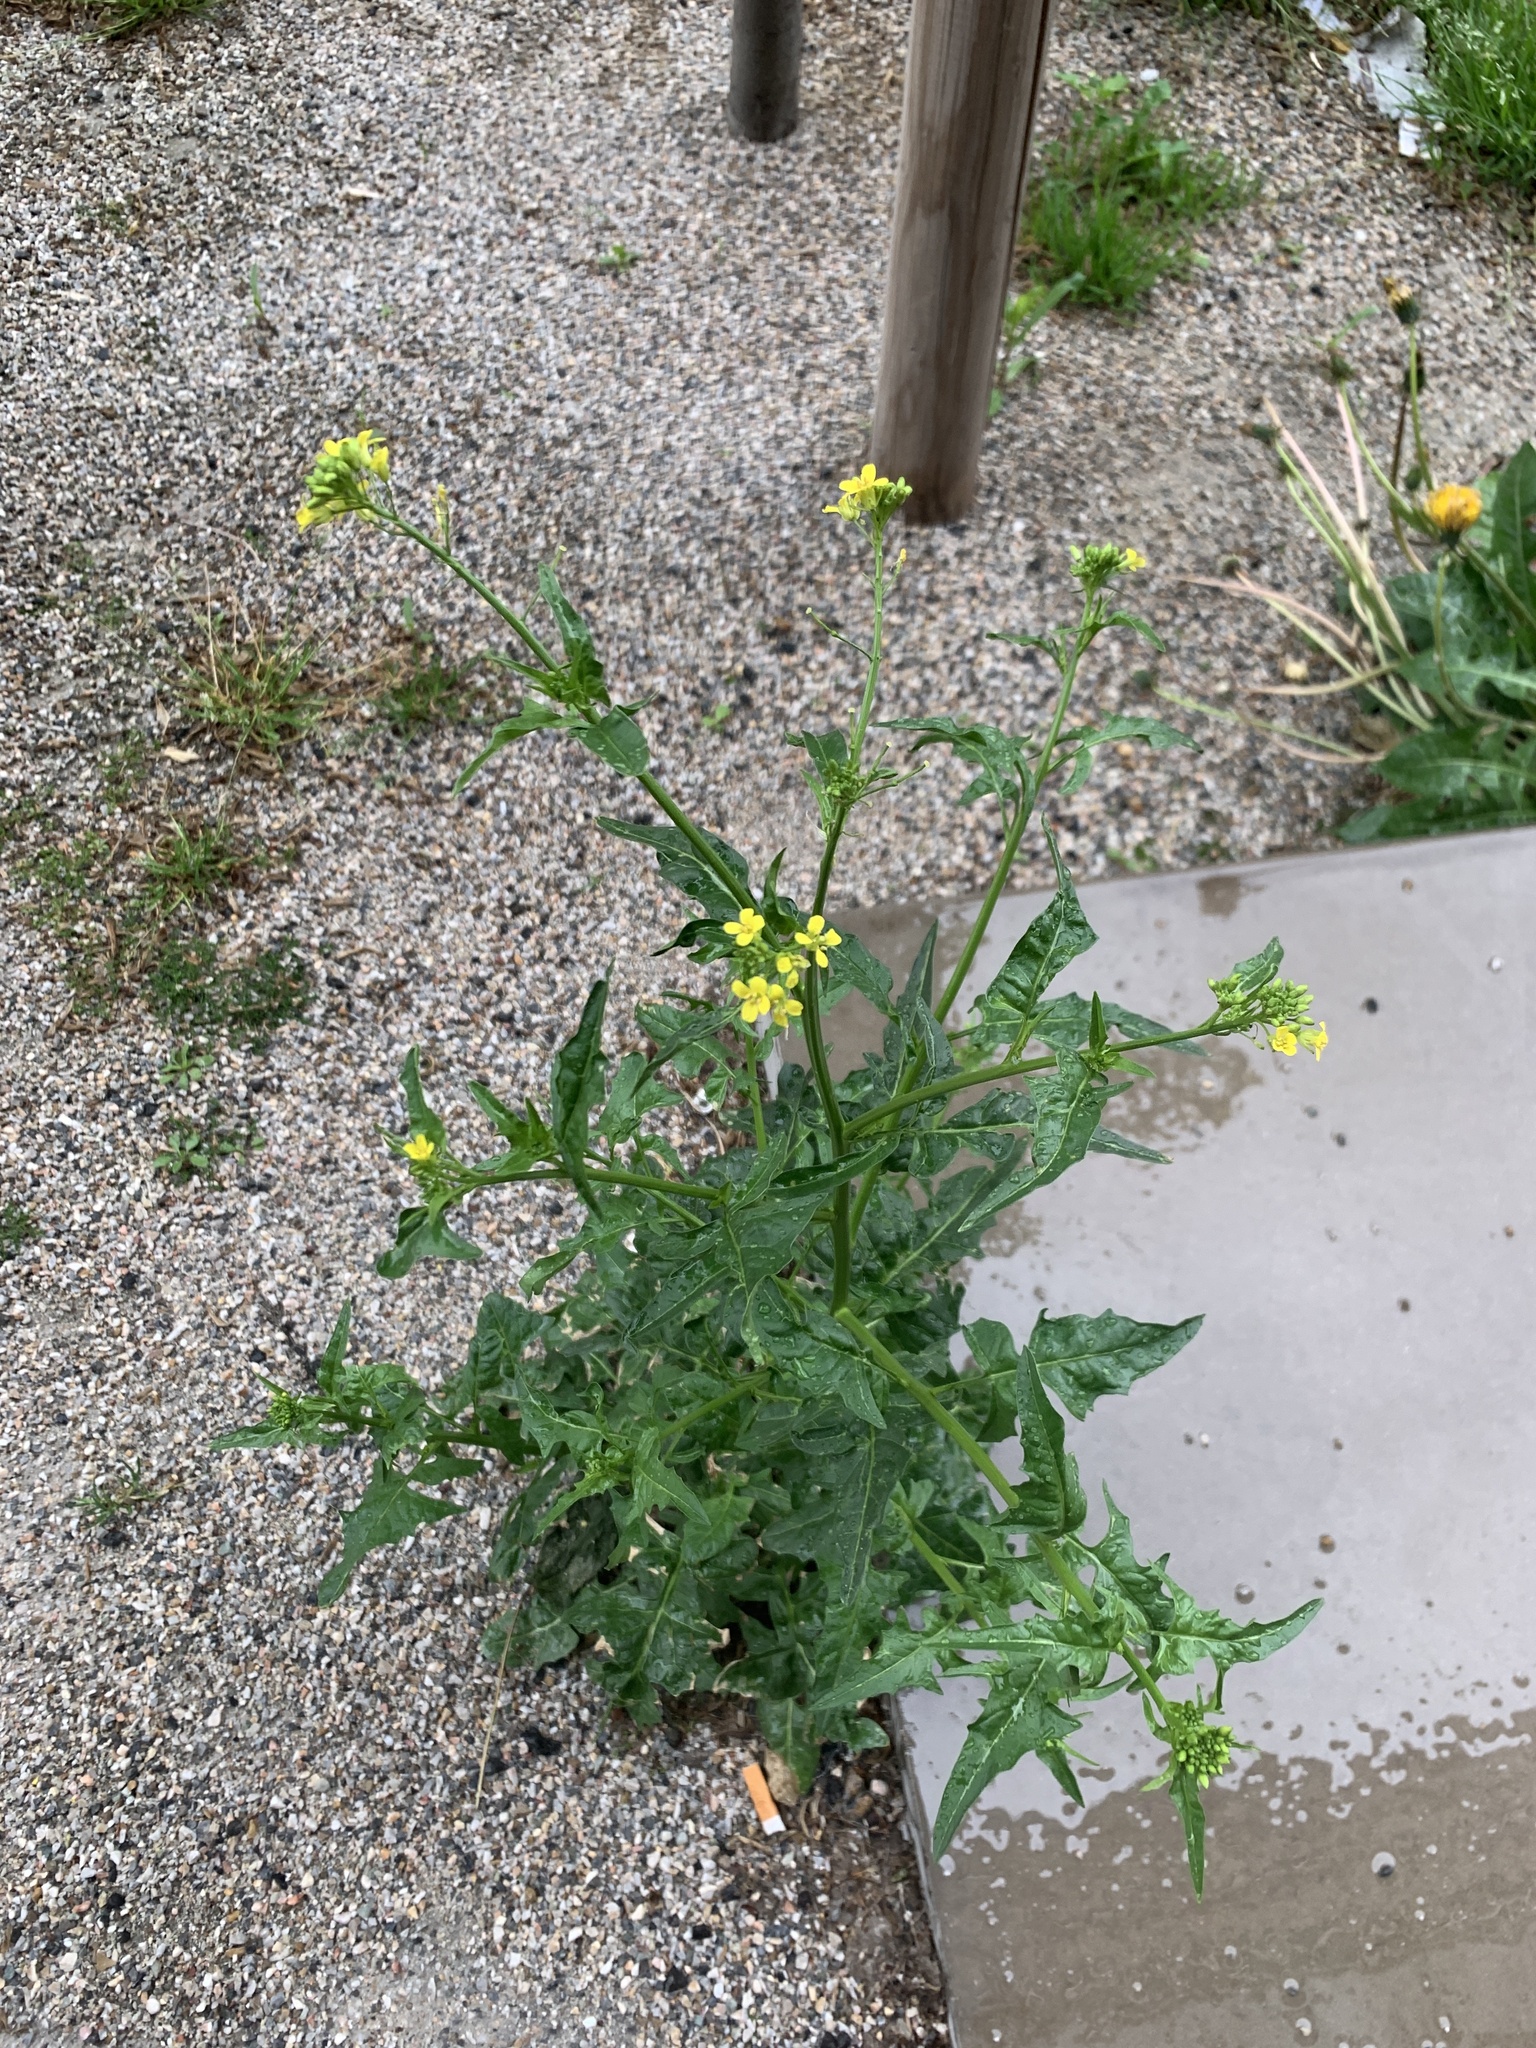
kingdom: Plantae
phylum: Tracheophyta
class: Magnoliopsida
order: Brassicales
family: Brassicaceae
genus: Sisymbrium
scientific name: Sisymbrium loeselii
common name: False london-rocket
